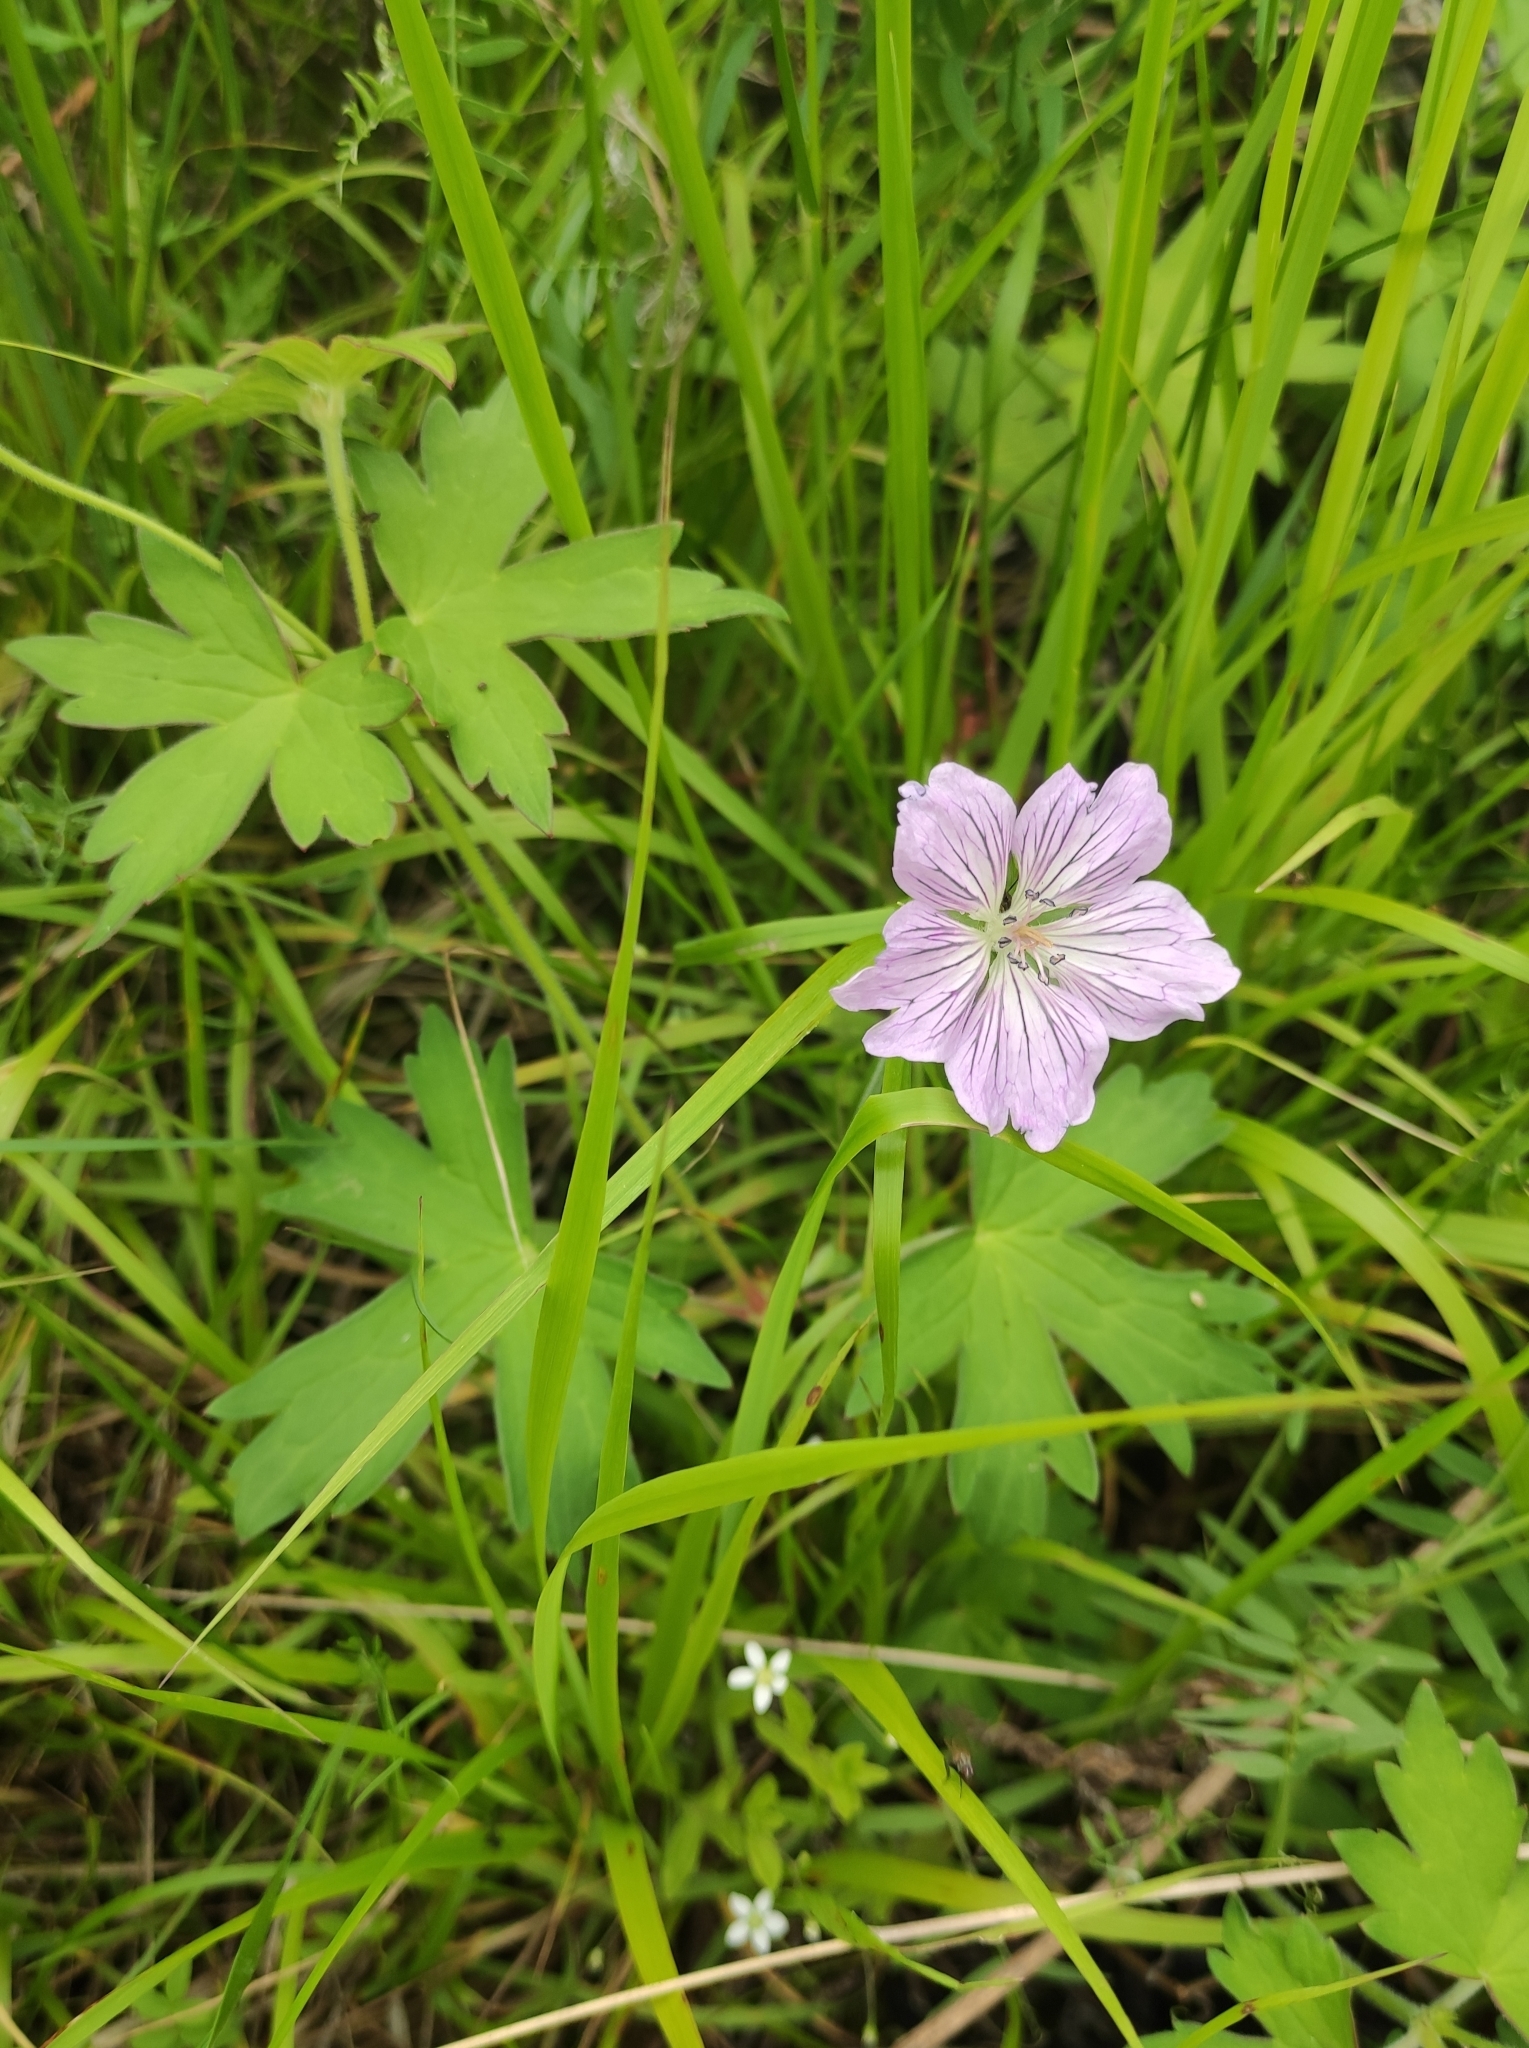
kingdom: Plantae
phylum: Tracheophyta
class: Magnoliopsida
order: Geraniales
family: Geraniaceae
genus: Geranium
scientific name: Geranium wlassovianum
